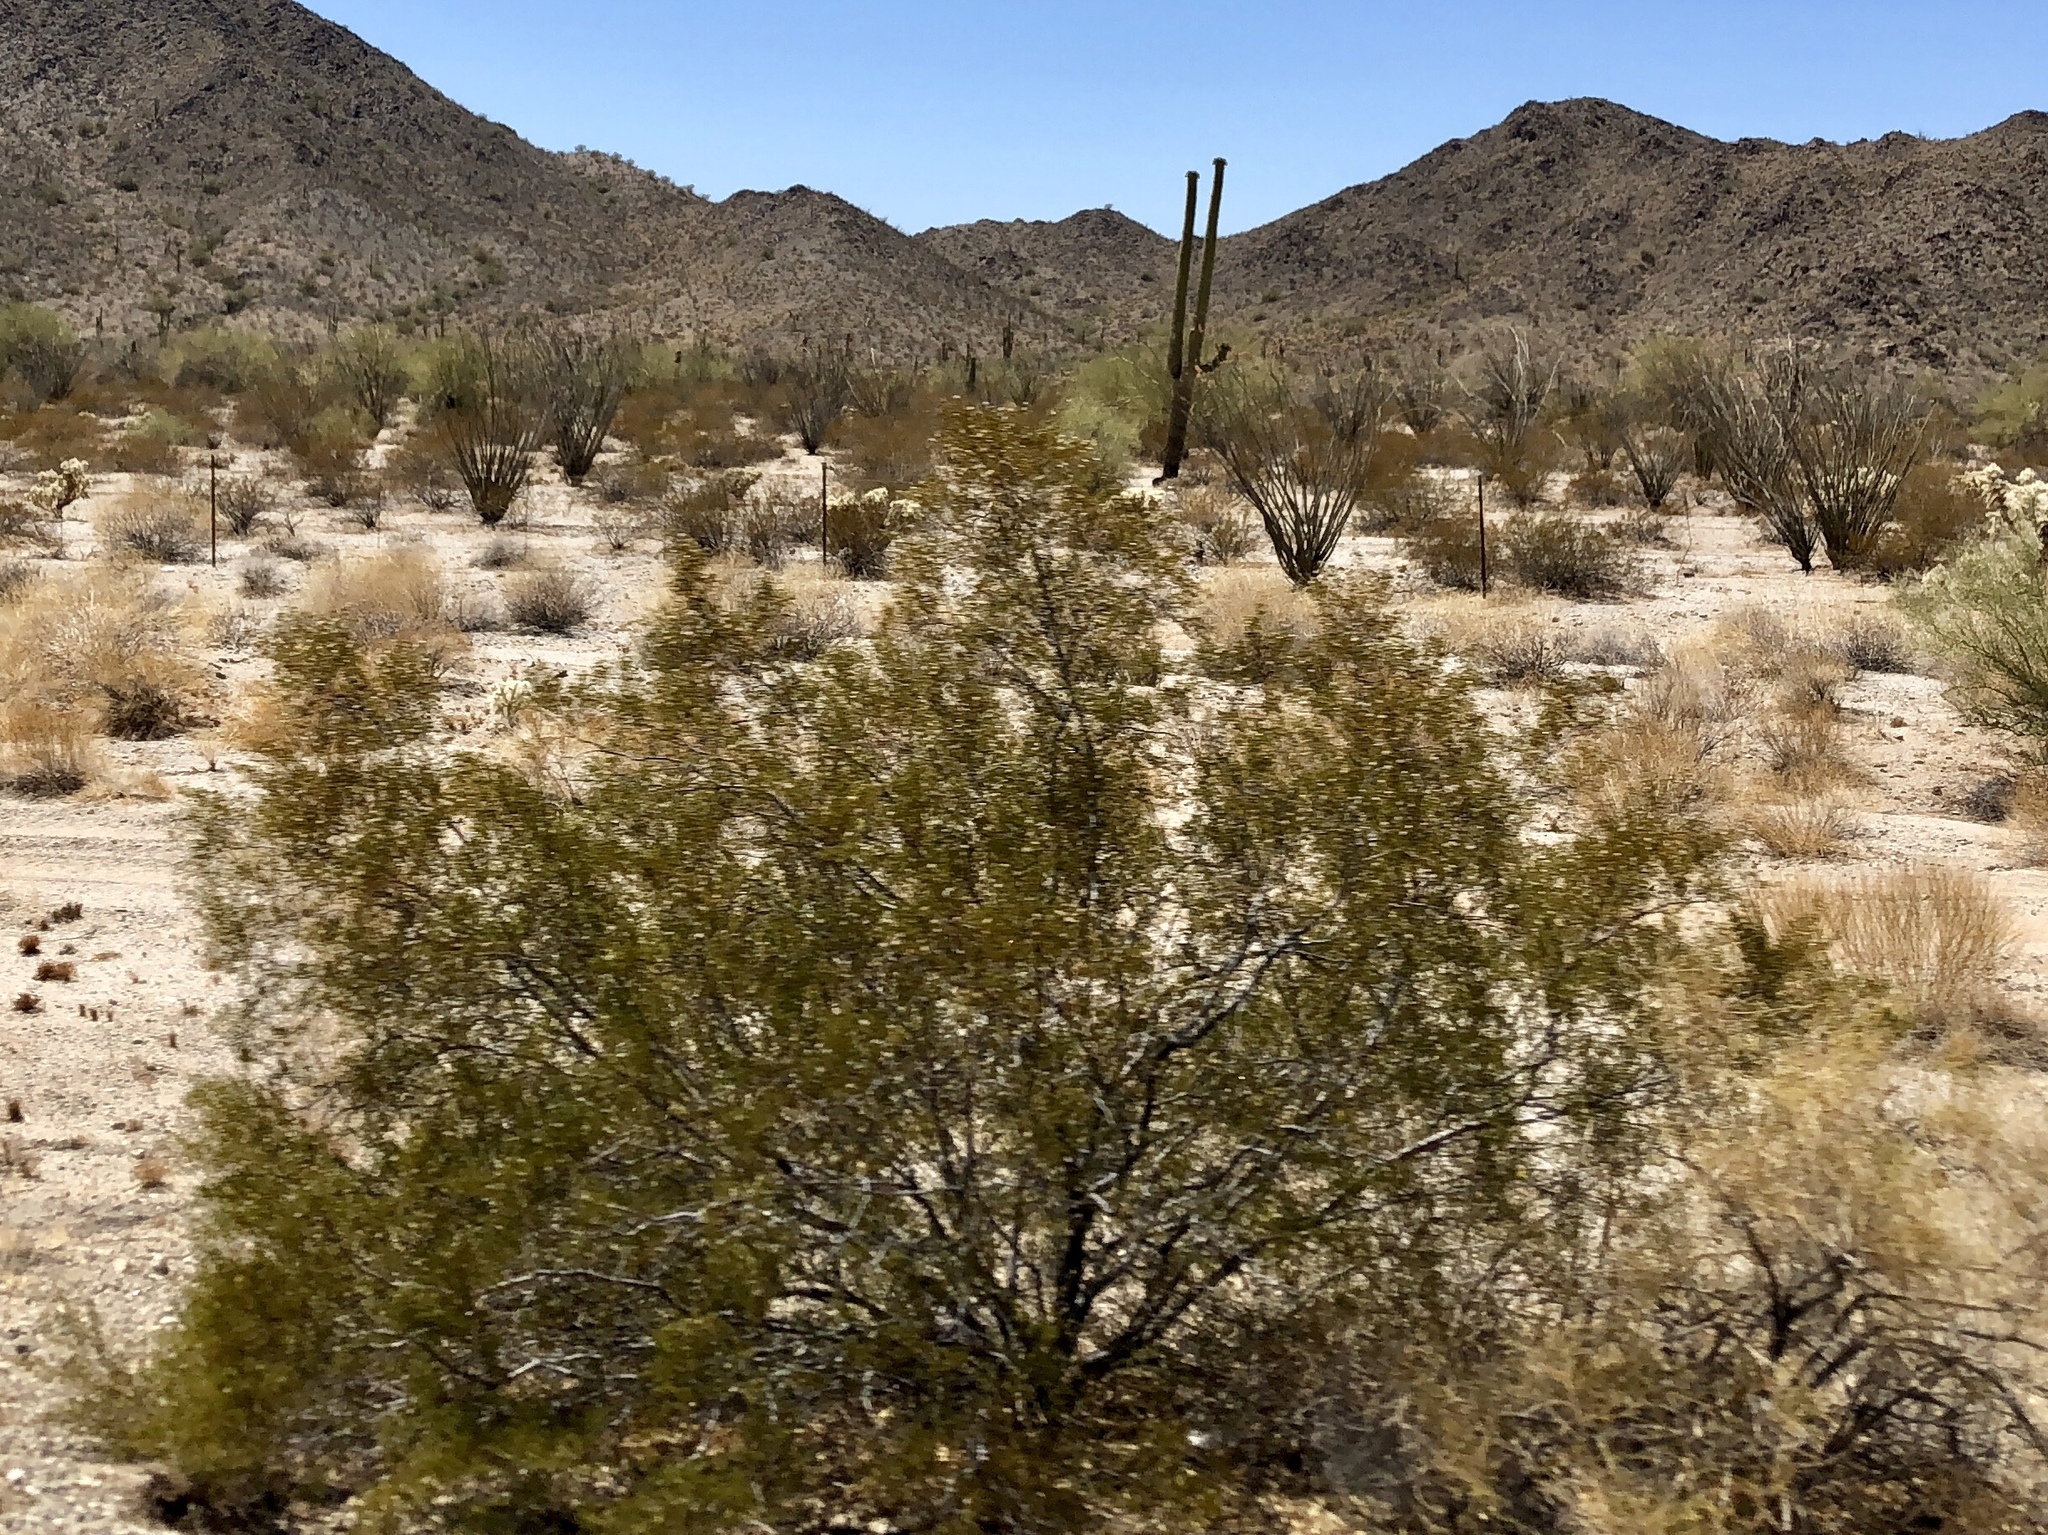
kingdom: Plantae
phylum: Tracheophyta
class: Magnoliopsida
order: Zygophyllales
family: Zygophyllaceae
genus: Larrea
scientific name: Larrea tridentata
